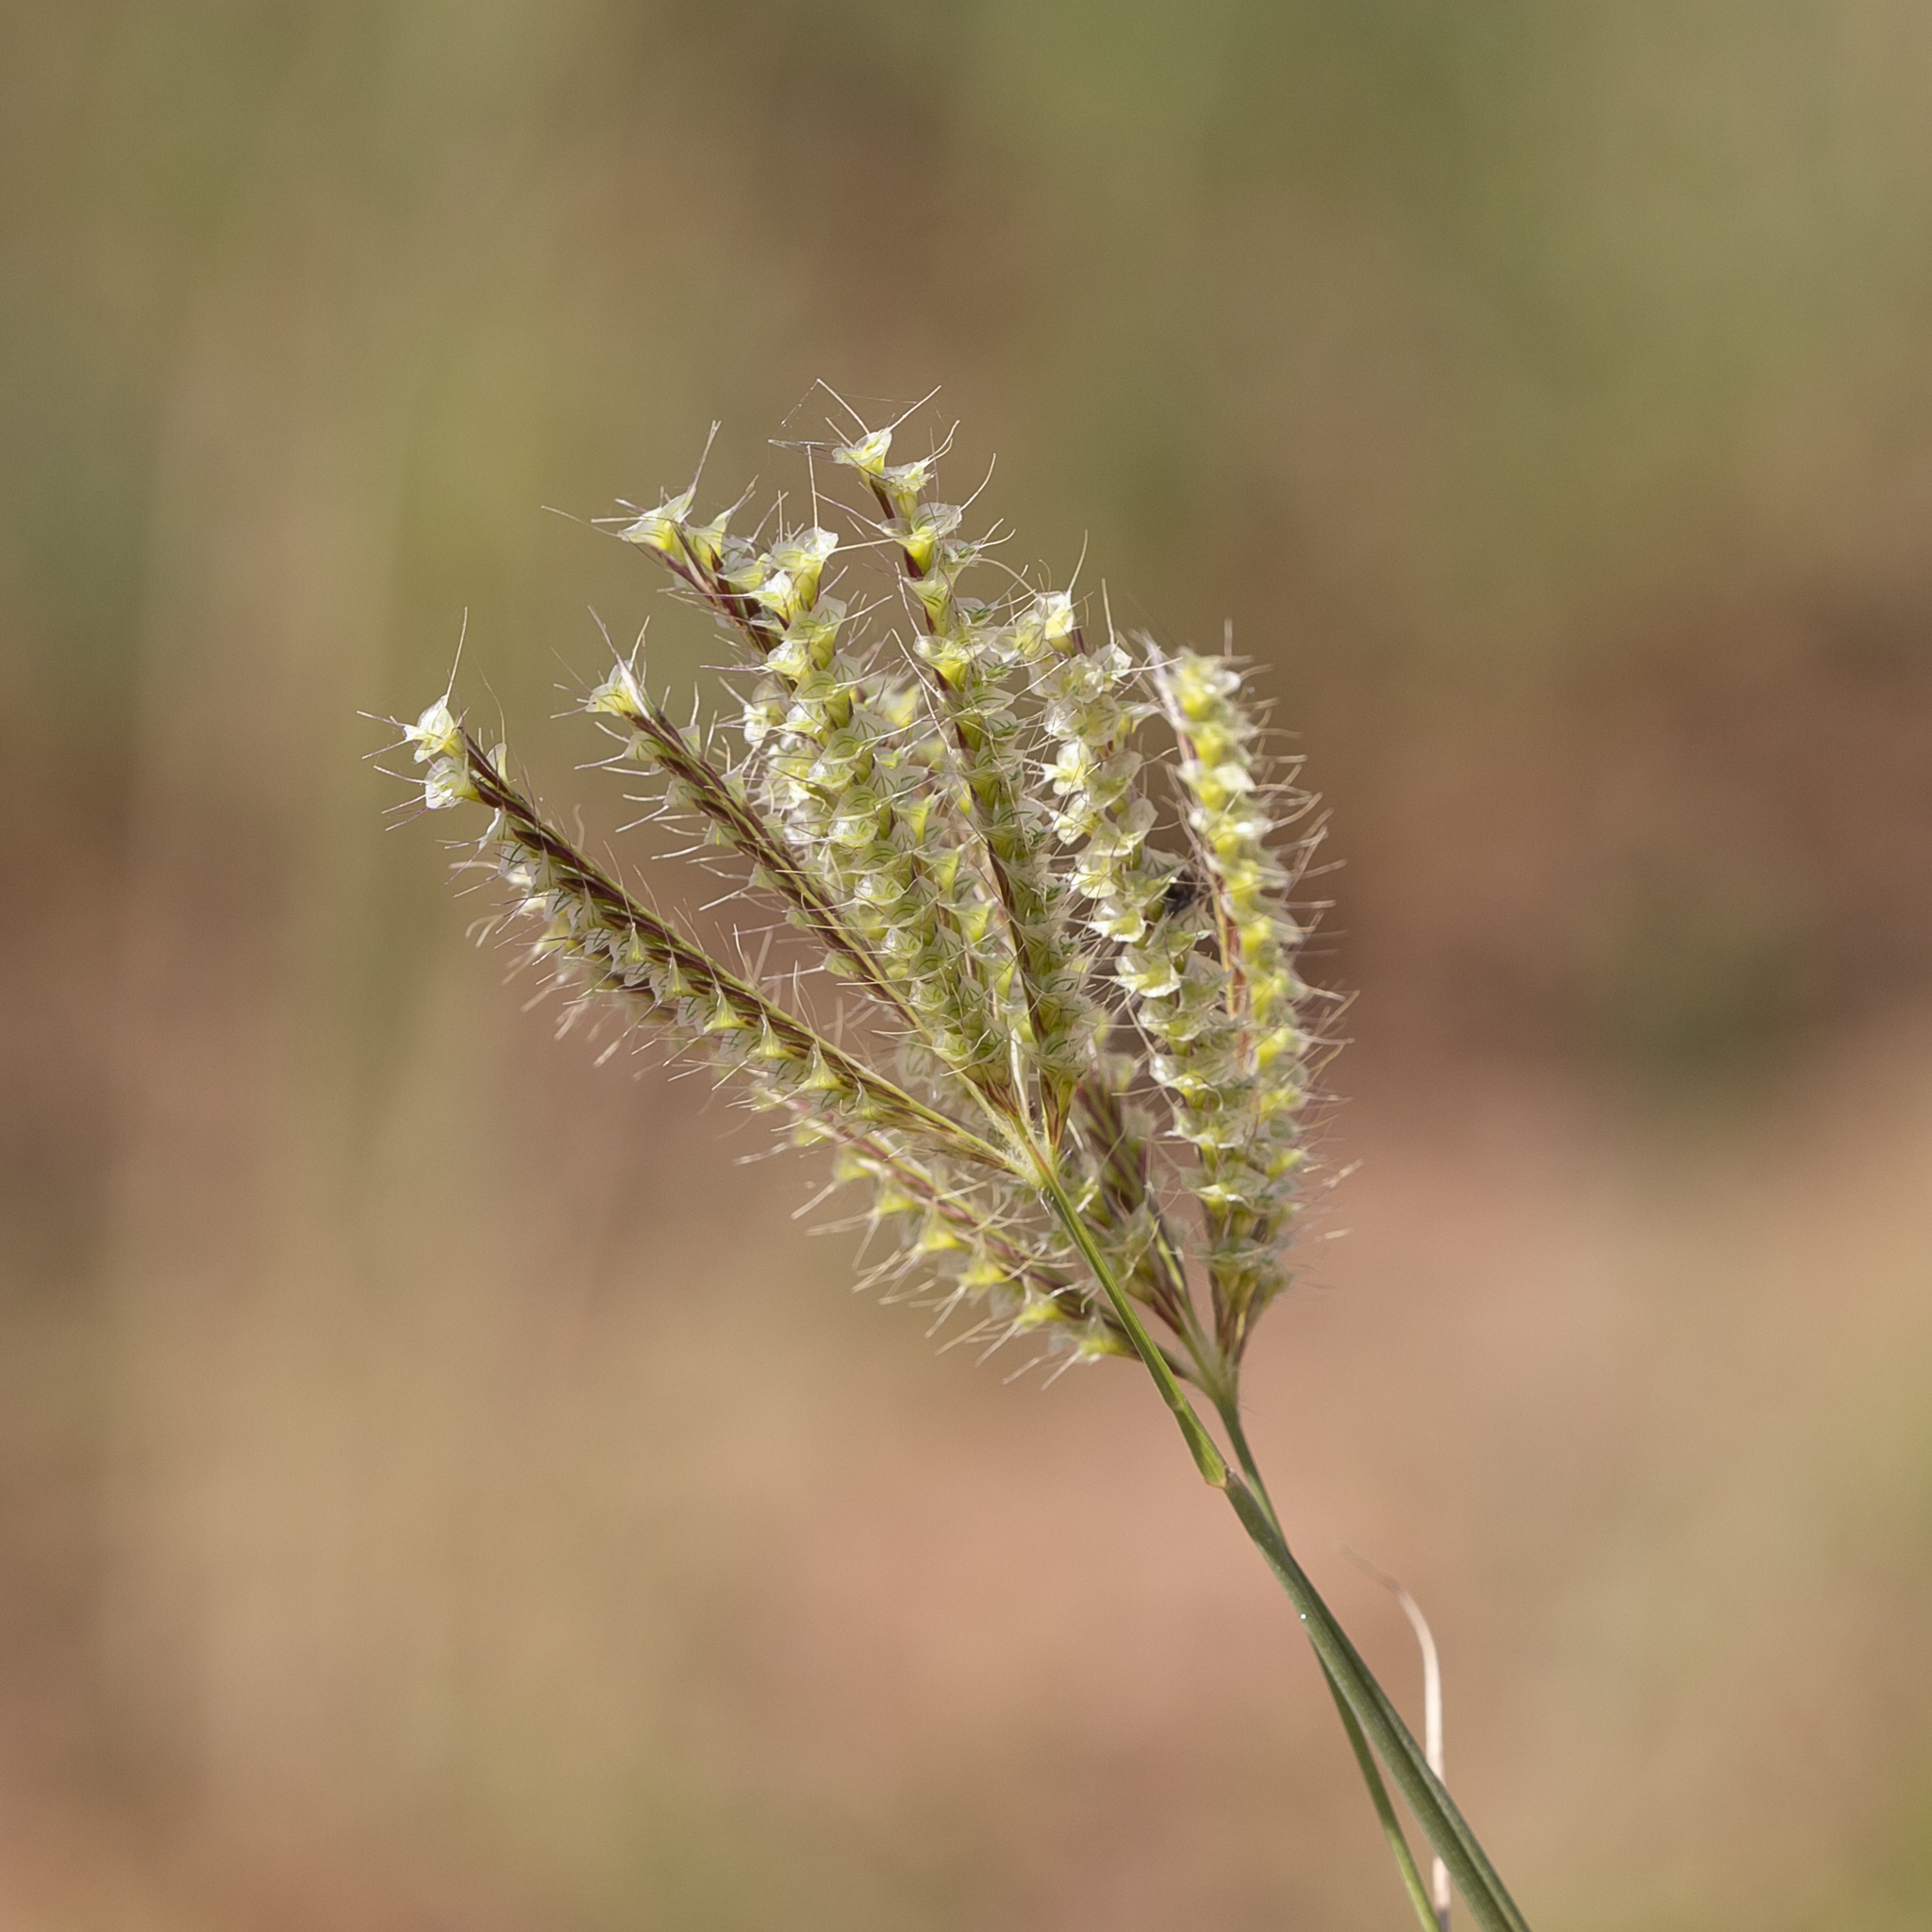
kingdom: Plantae
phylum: Tracheophyta
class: Liliopsida
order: Poales
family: Poaceae
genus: Oxychloris
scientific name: Oxychloris scariosa
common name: Winged windmill grass
